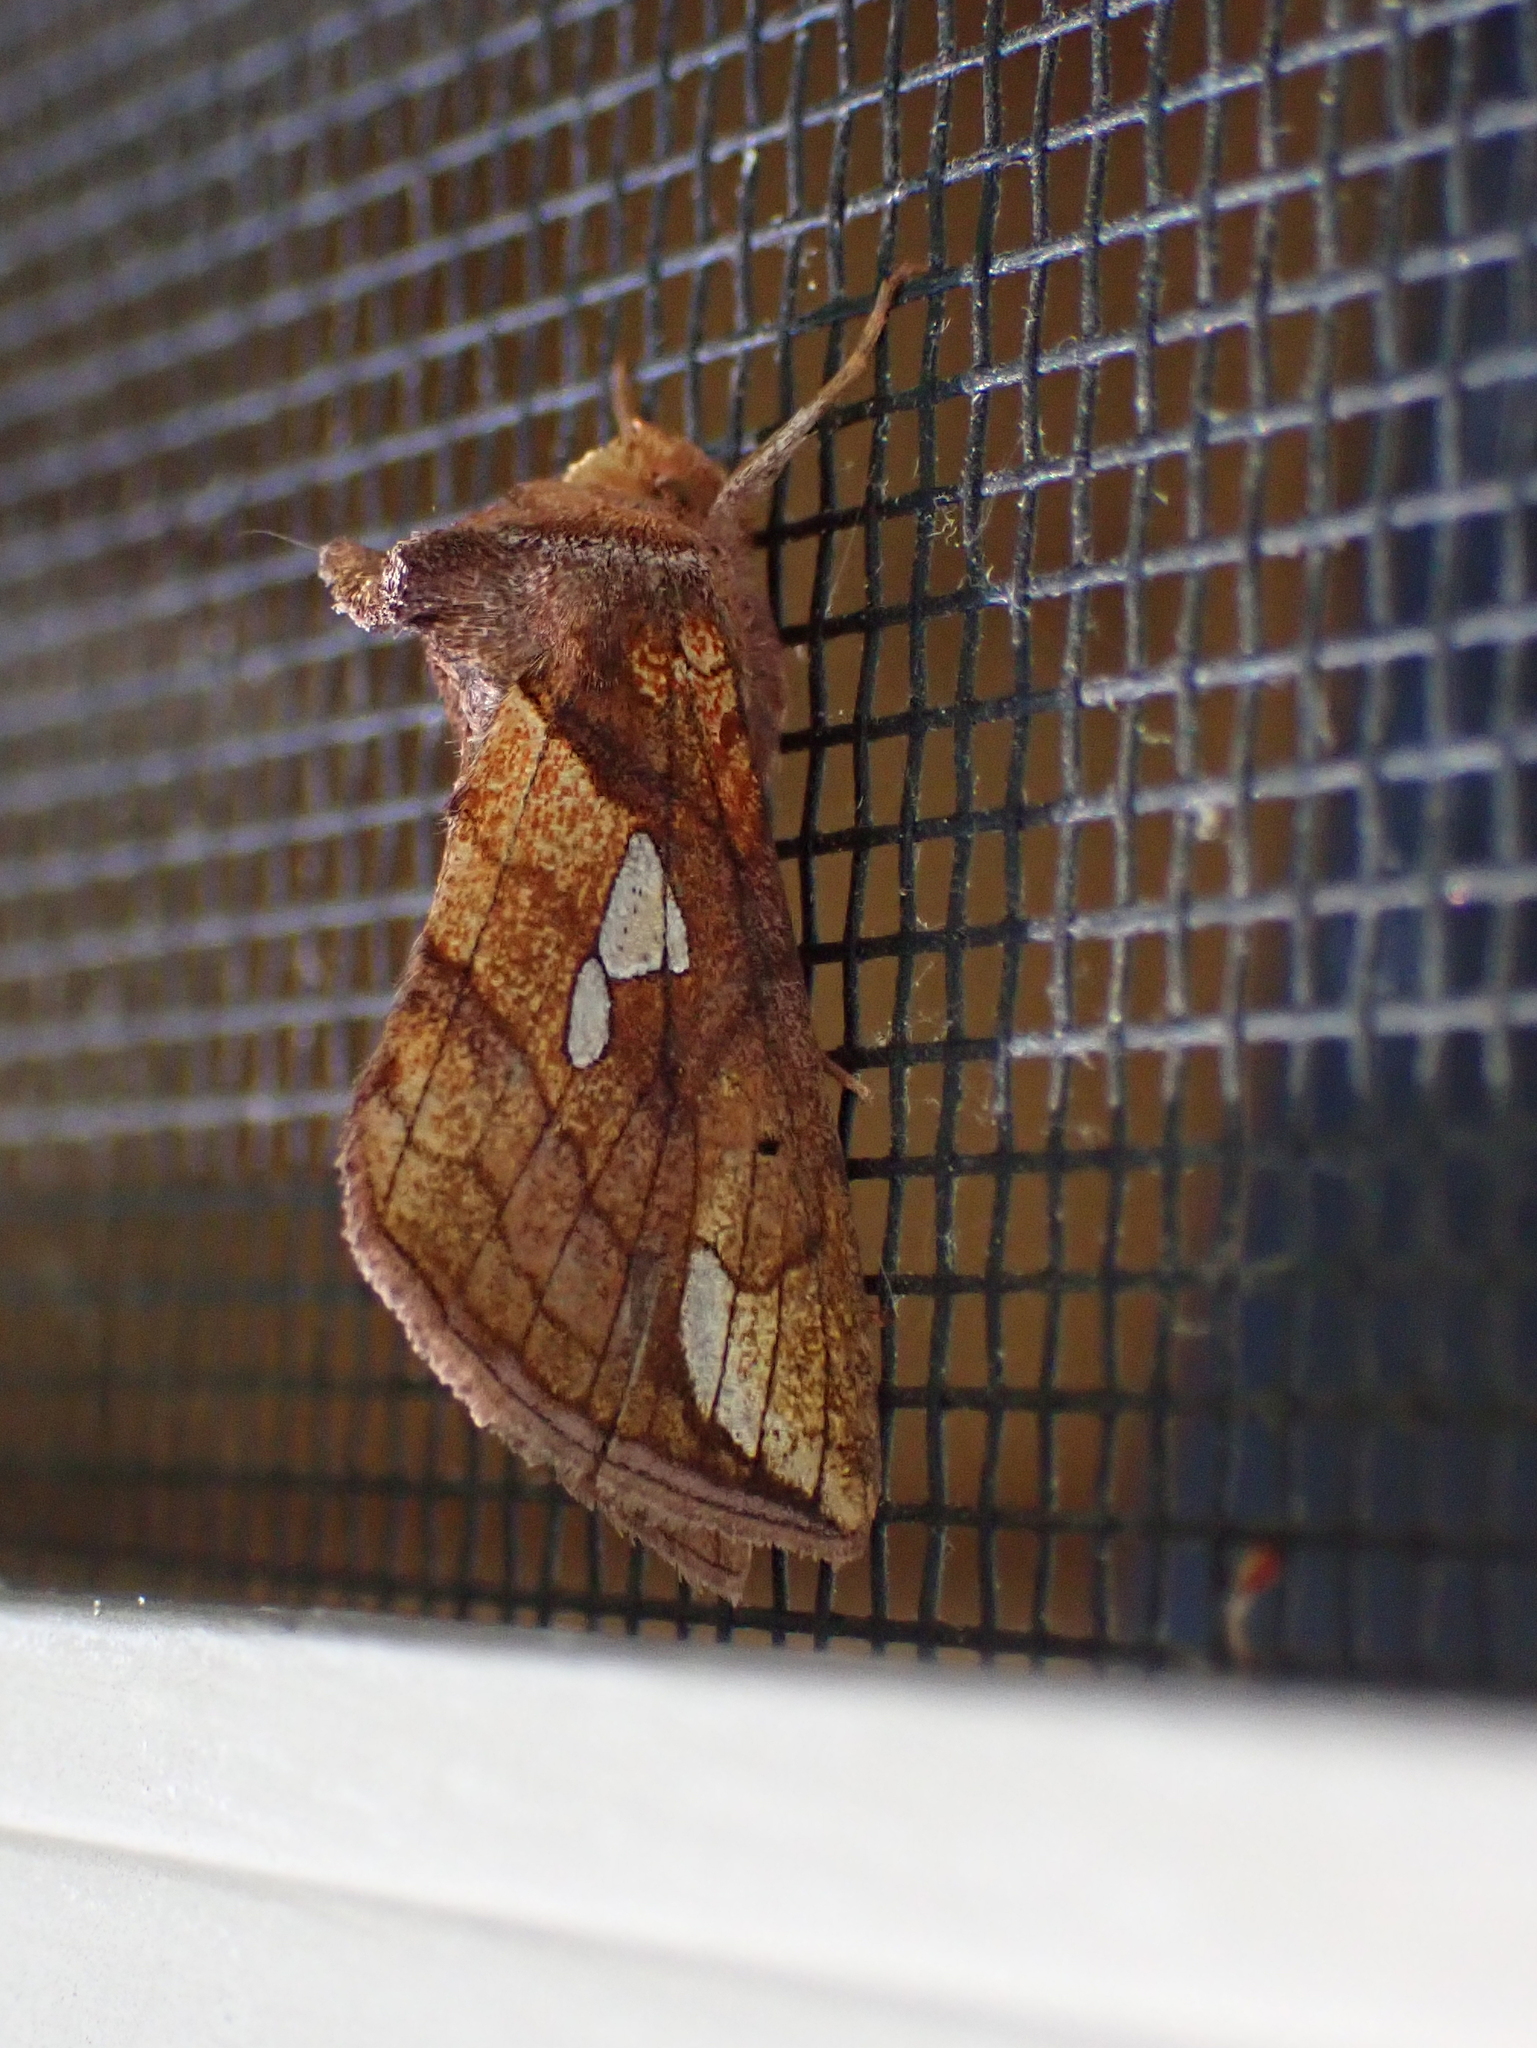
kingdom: Animalia
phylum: Arthropoda
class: Insecta
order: Lepidoptera
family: Noctuidae
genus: Plusia
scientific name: Plusia putnami
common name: Lempke's gold spot
